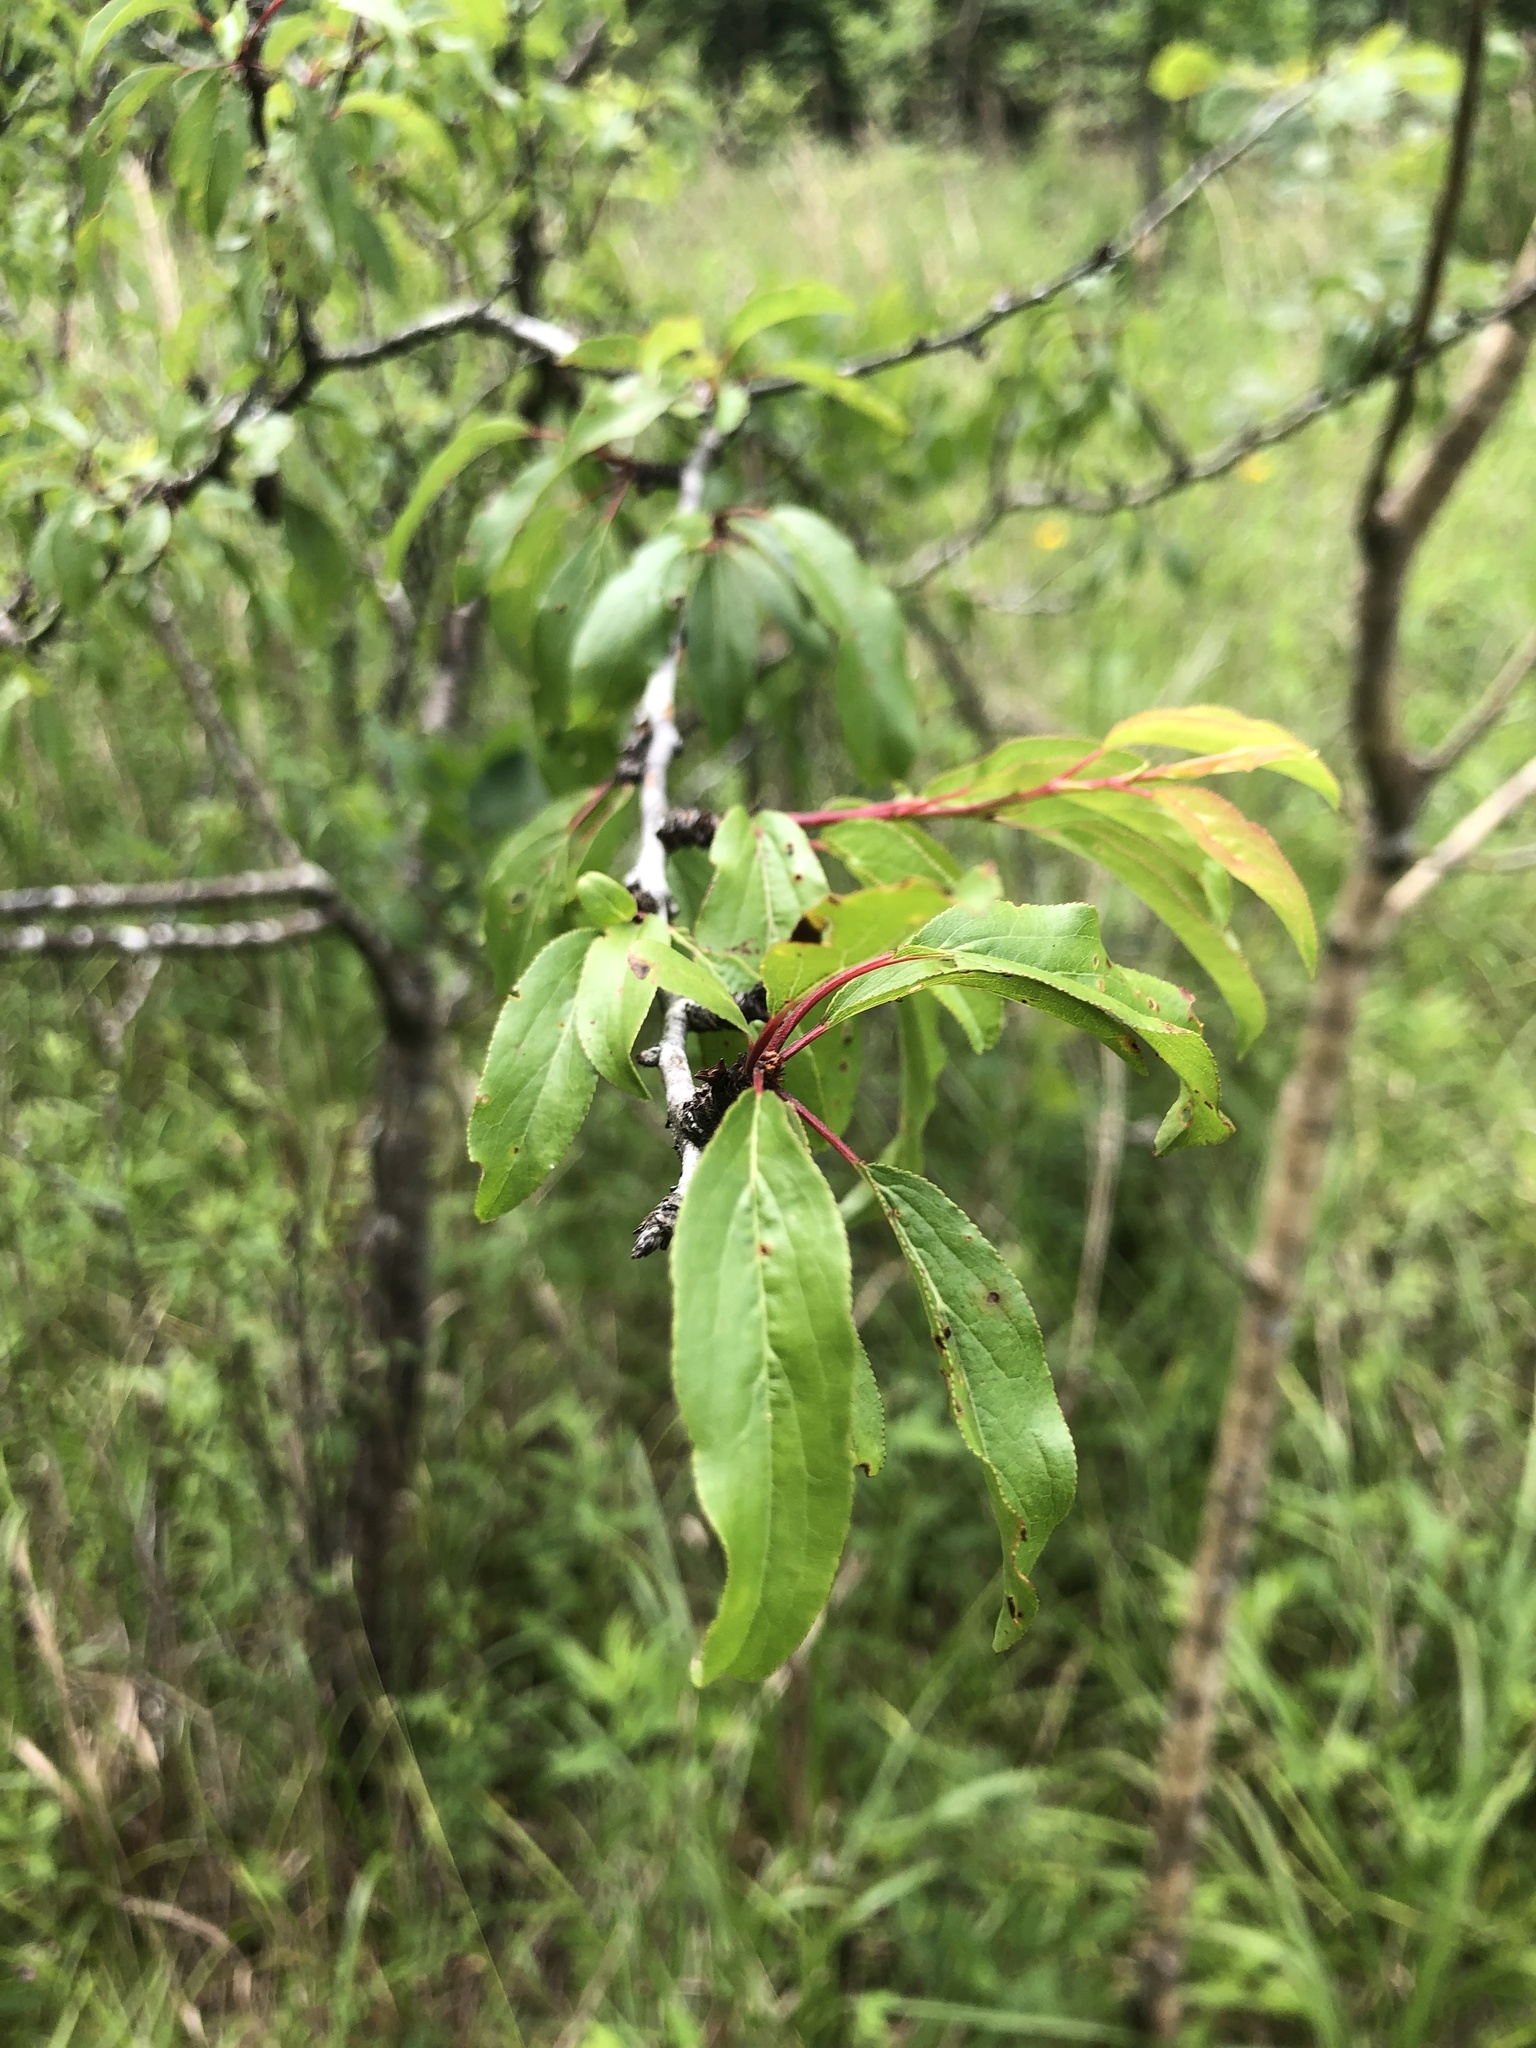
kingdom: Plantae
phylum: Tracheophyta
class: Magnoliopsida
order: Rosales
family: Rosaceae
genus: Prunus
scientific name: Prunus angustifolia
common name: Cherokee plum
